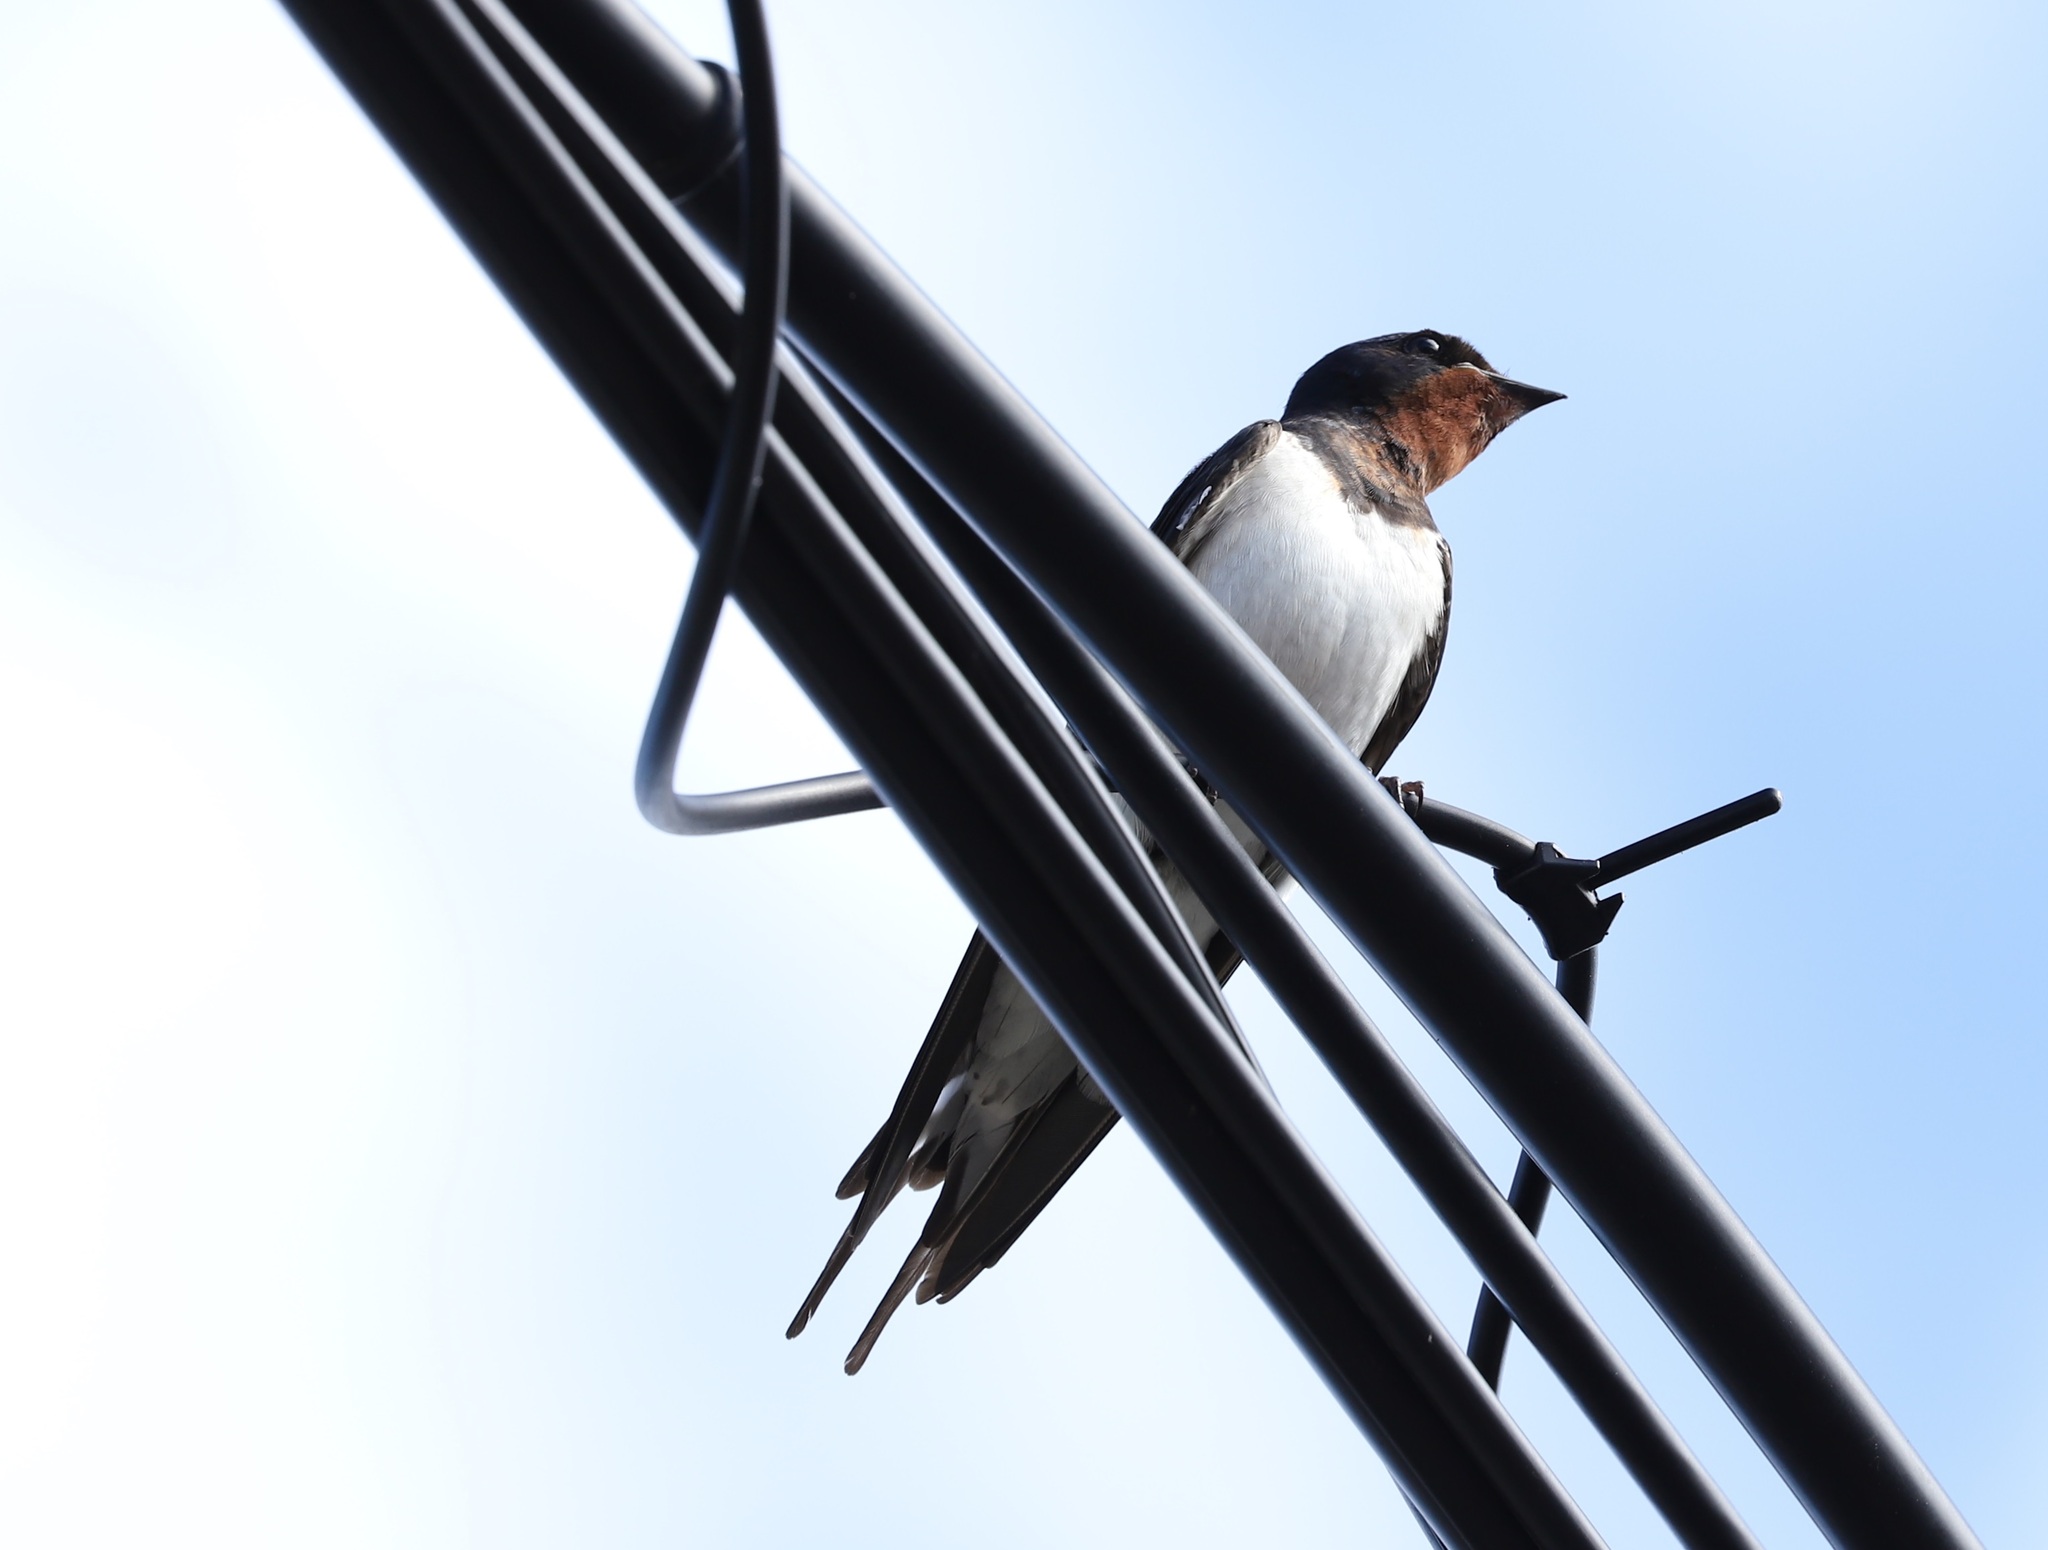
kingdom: Animalia
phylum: Chordata
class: Aves
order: Passeriformes
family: Hirundinidae
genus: Hirundo
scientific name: Hirundo rustica
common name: Barn swallow
